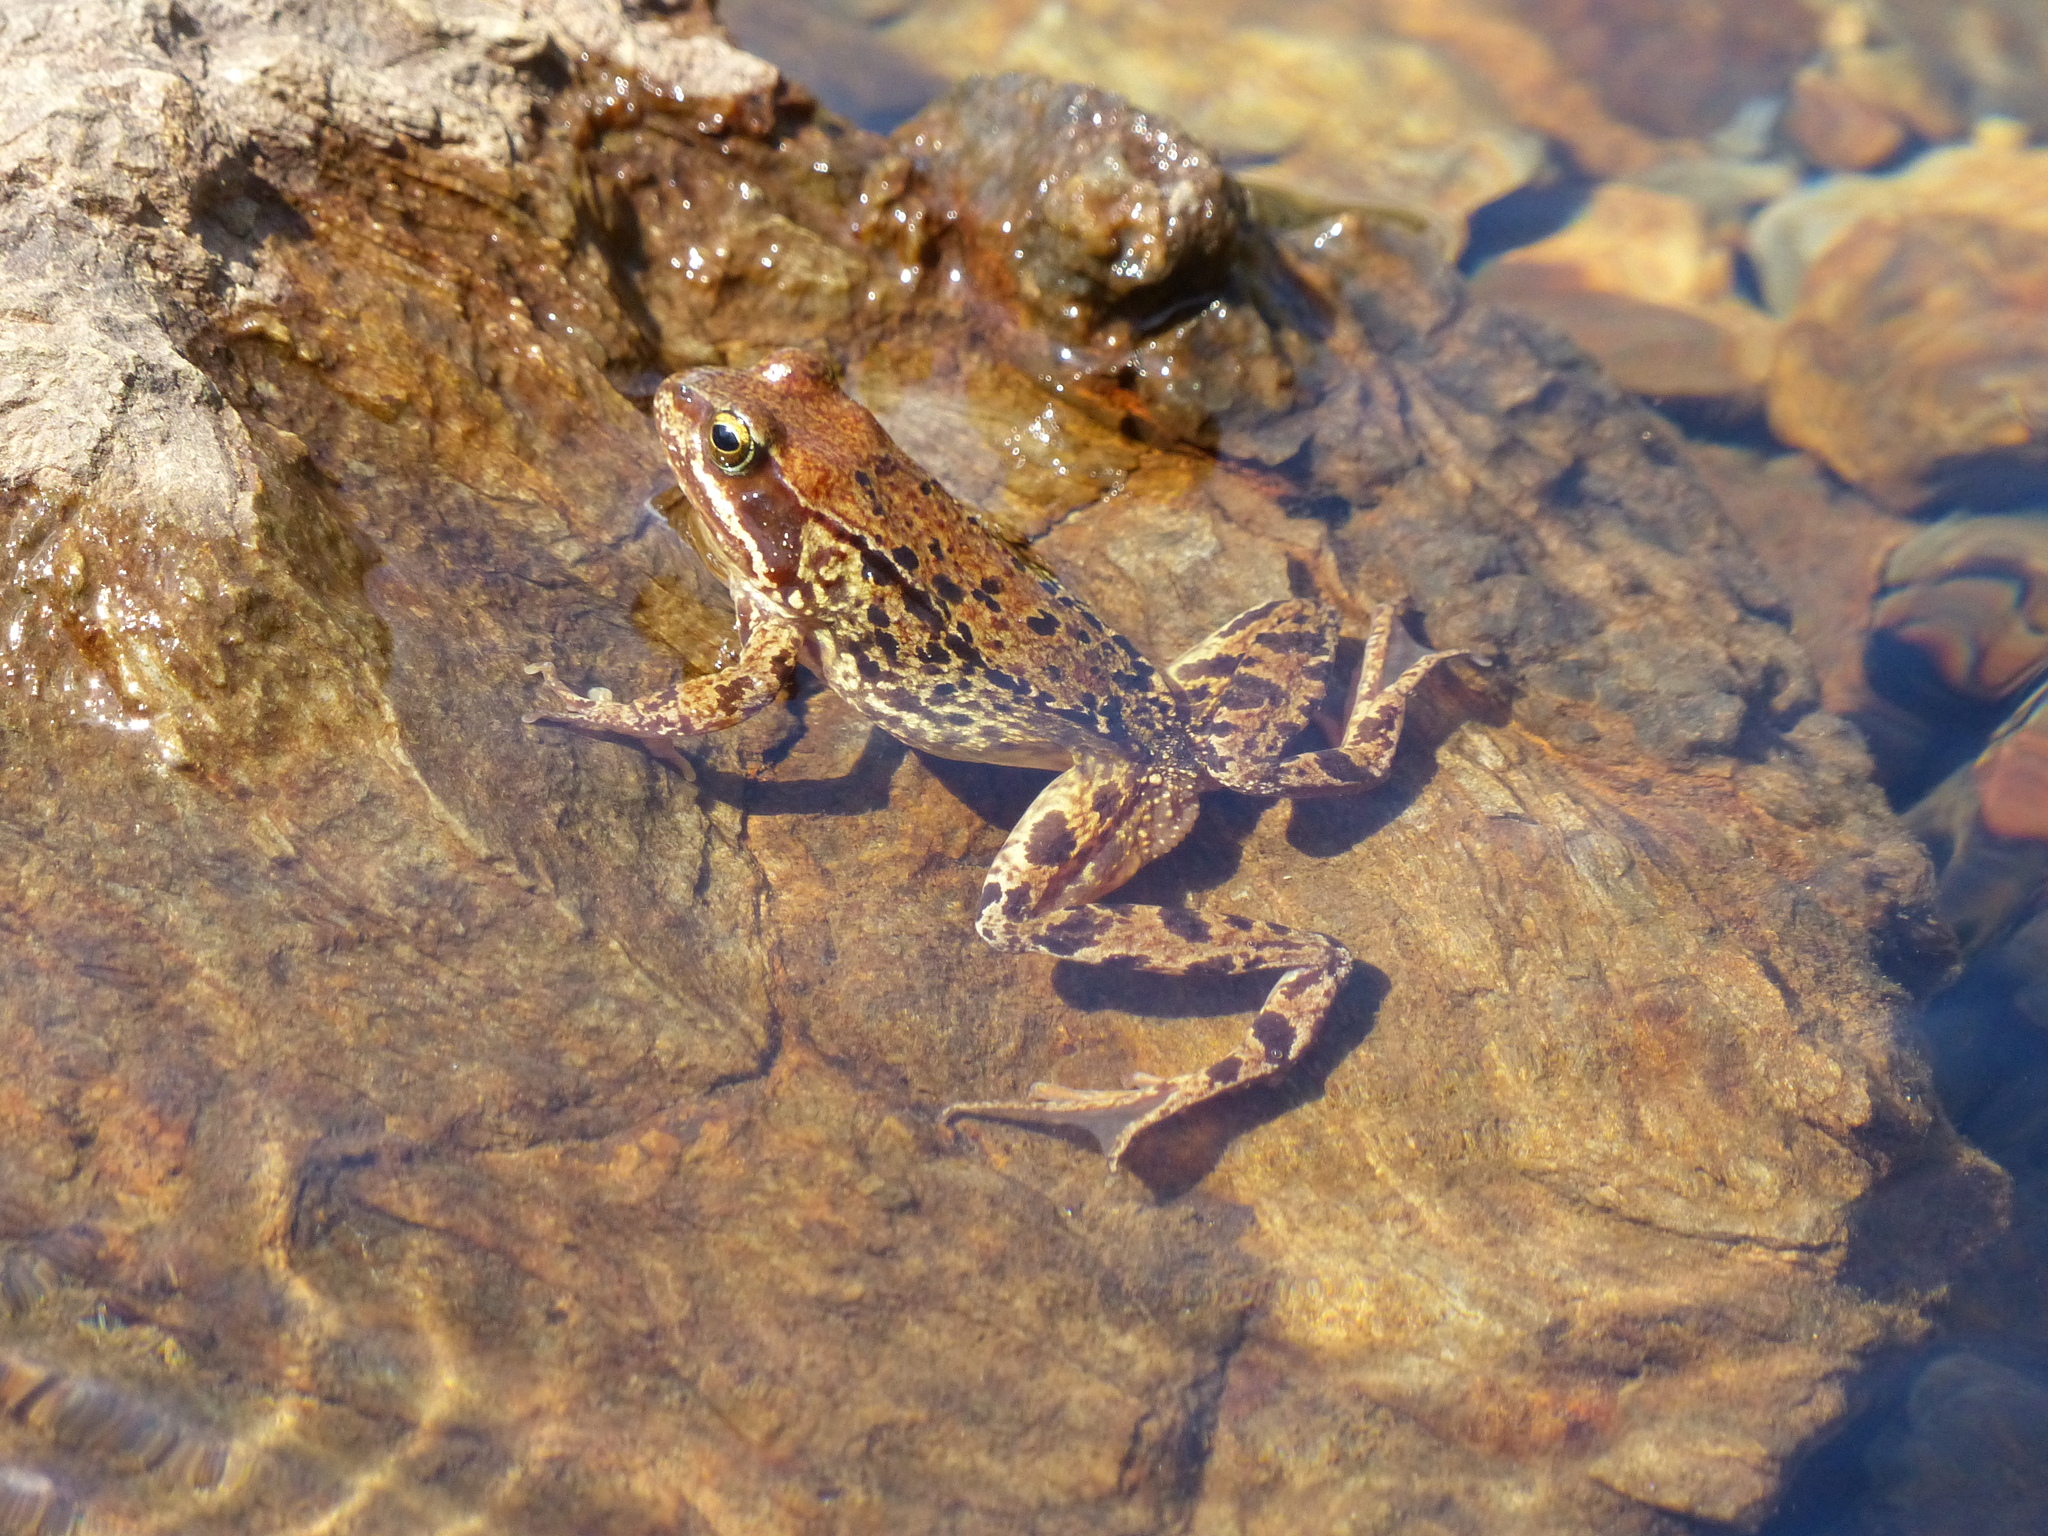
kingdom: Animalia
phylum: Chordata
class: Amphibia
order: Anura
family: Ranidae
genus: Rana
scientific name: Rana temporaria
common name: Common frog
